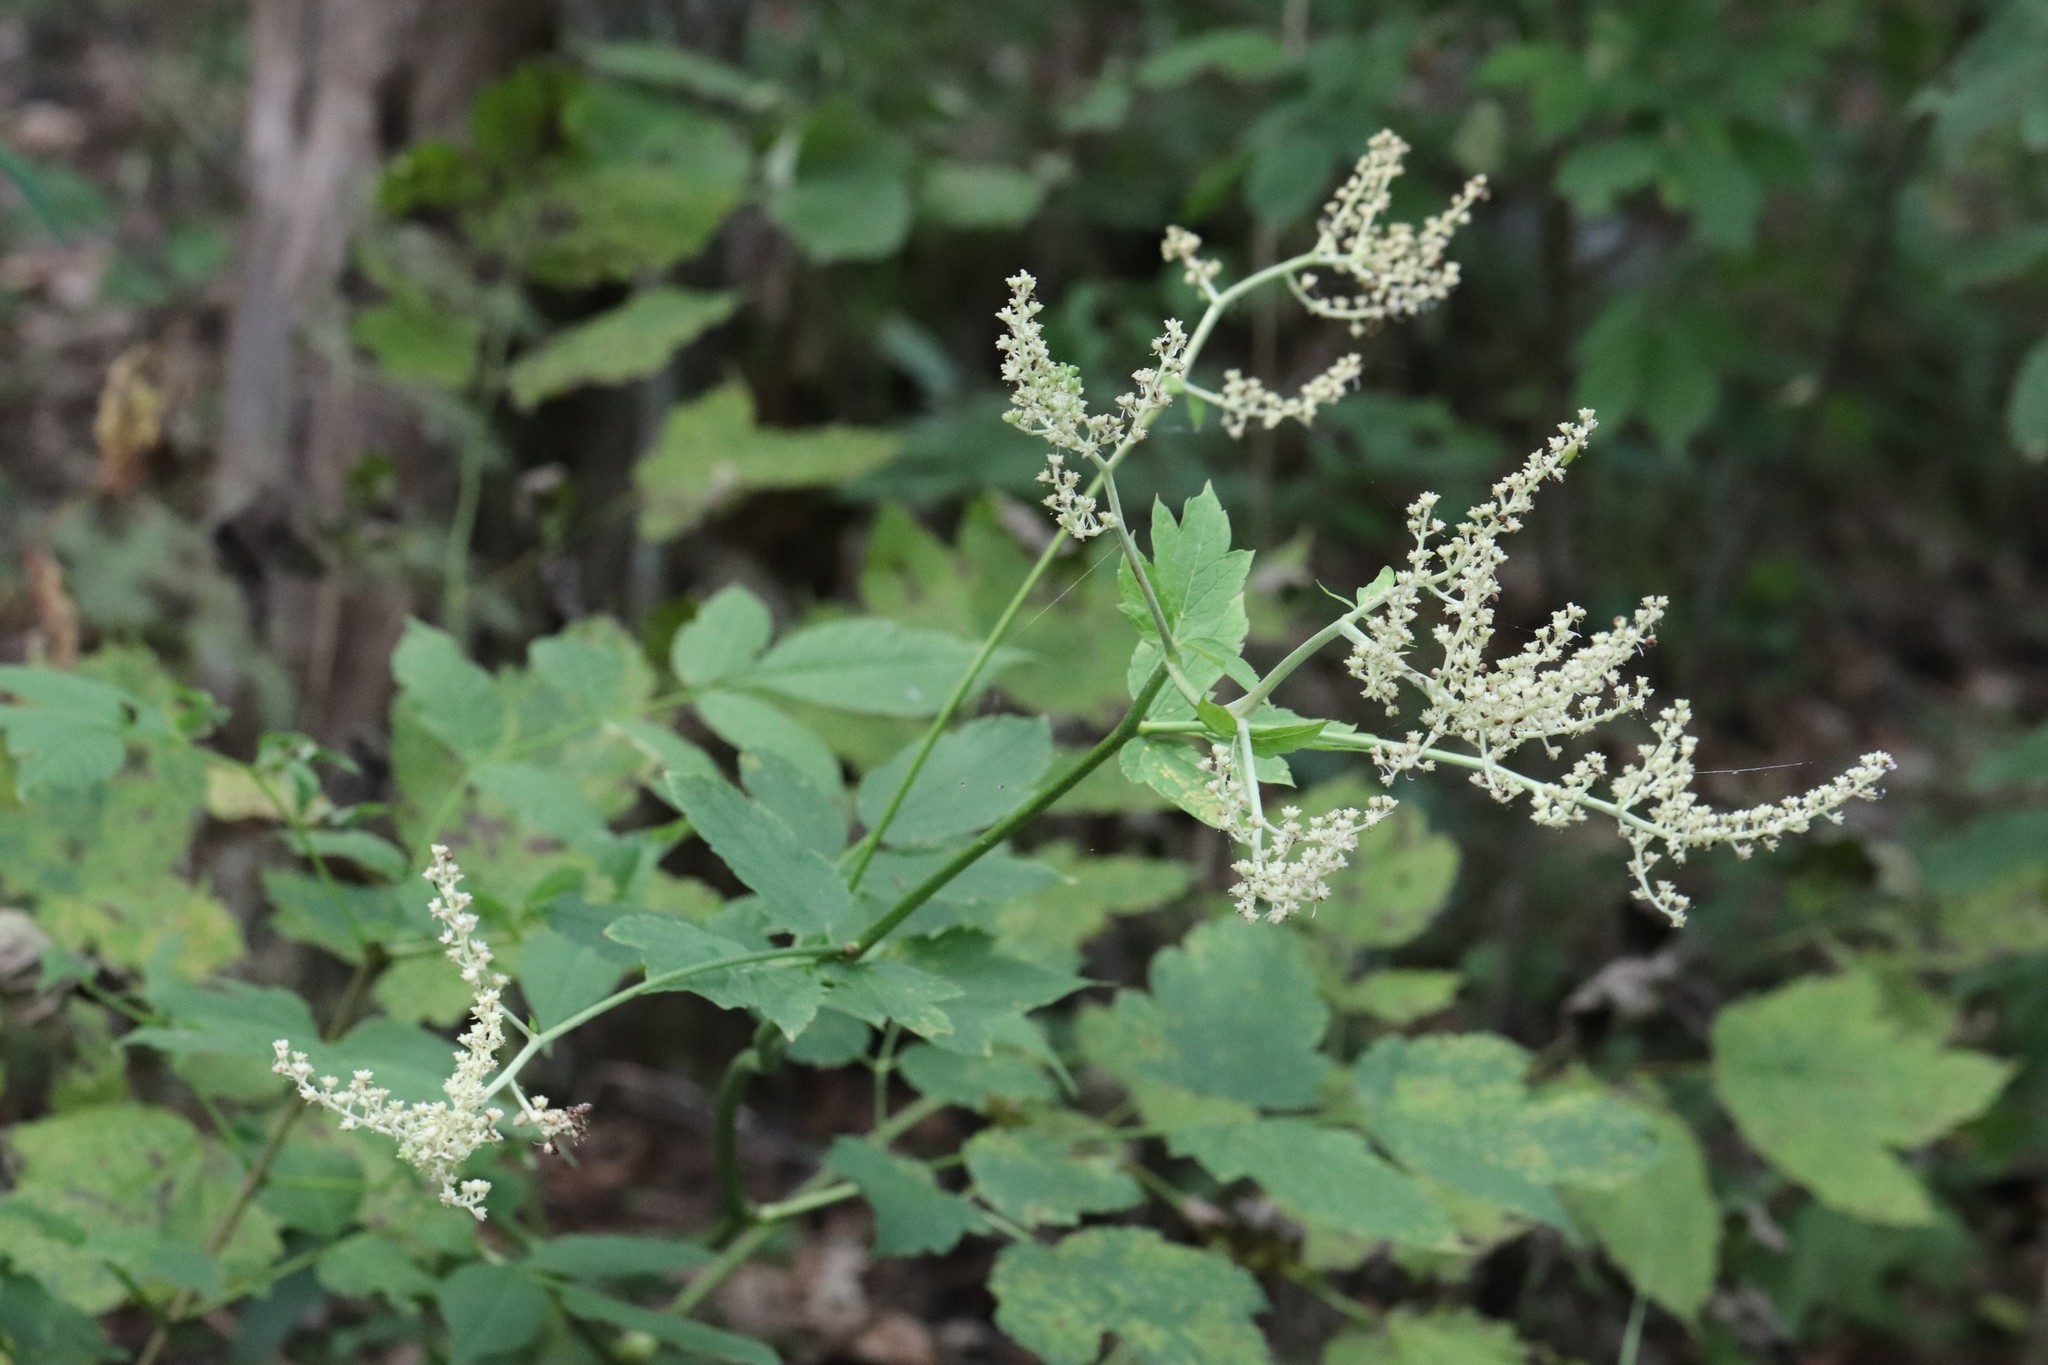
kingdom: Plantae
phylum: Tracheophyta
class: Magnoliopsida
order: Ranunculales
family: Ranunculaceae
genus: Actaea
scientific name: Actaea dahurica
